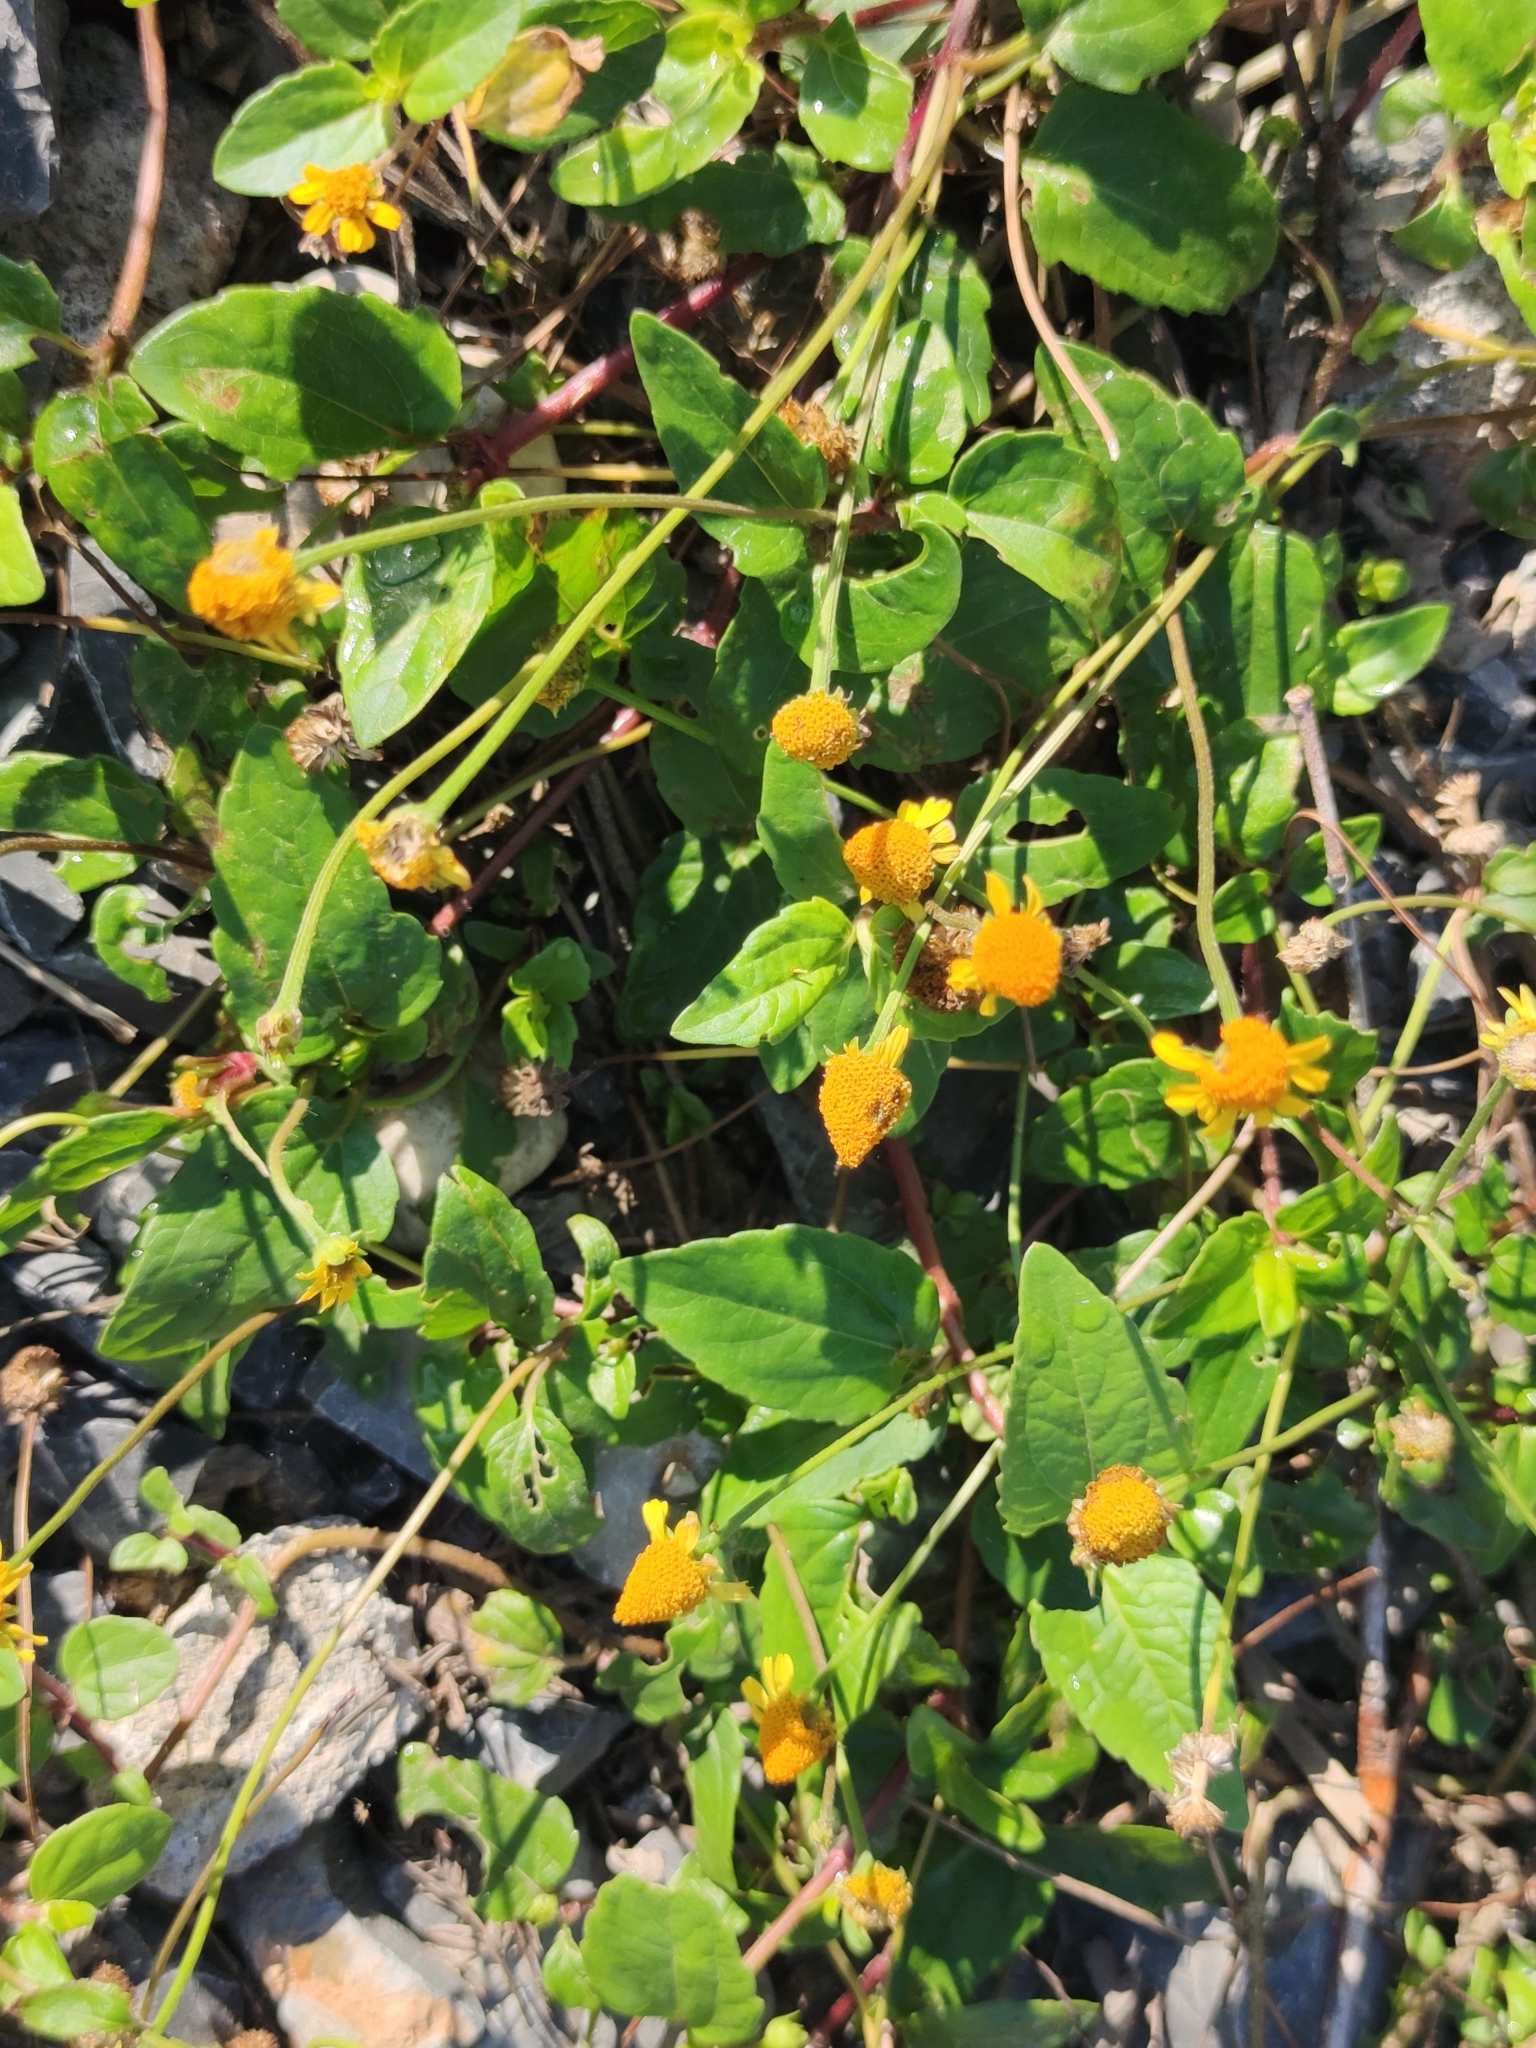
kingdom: Plantae
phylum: Tracheophyta
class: Magnoliopsida
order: Asterales
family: Asteraceae
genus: Acmella
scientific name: Acmella repens
